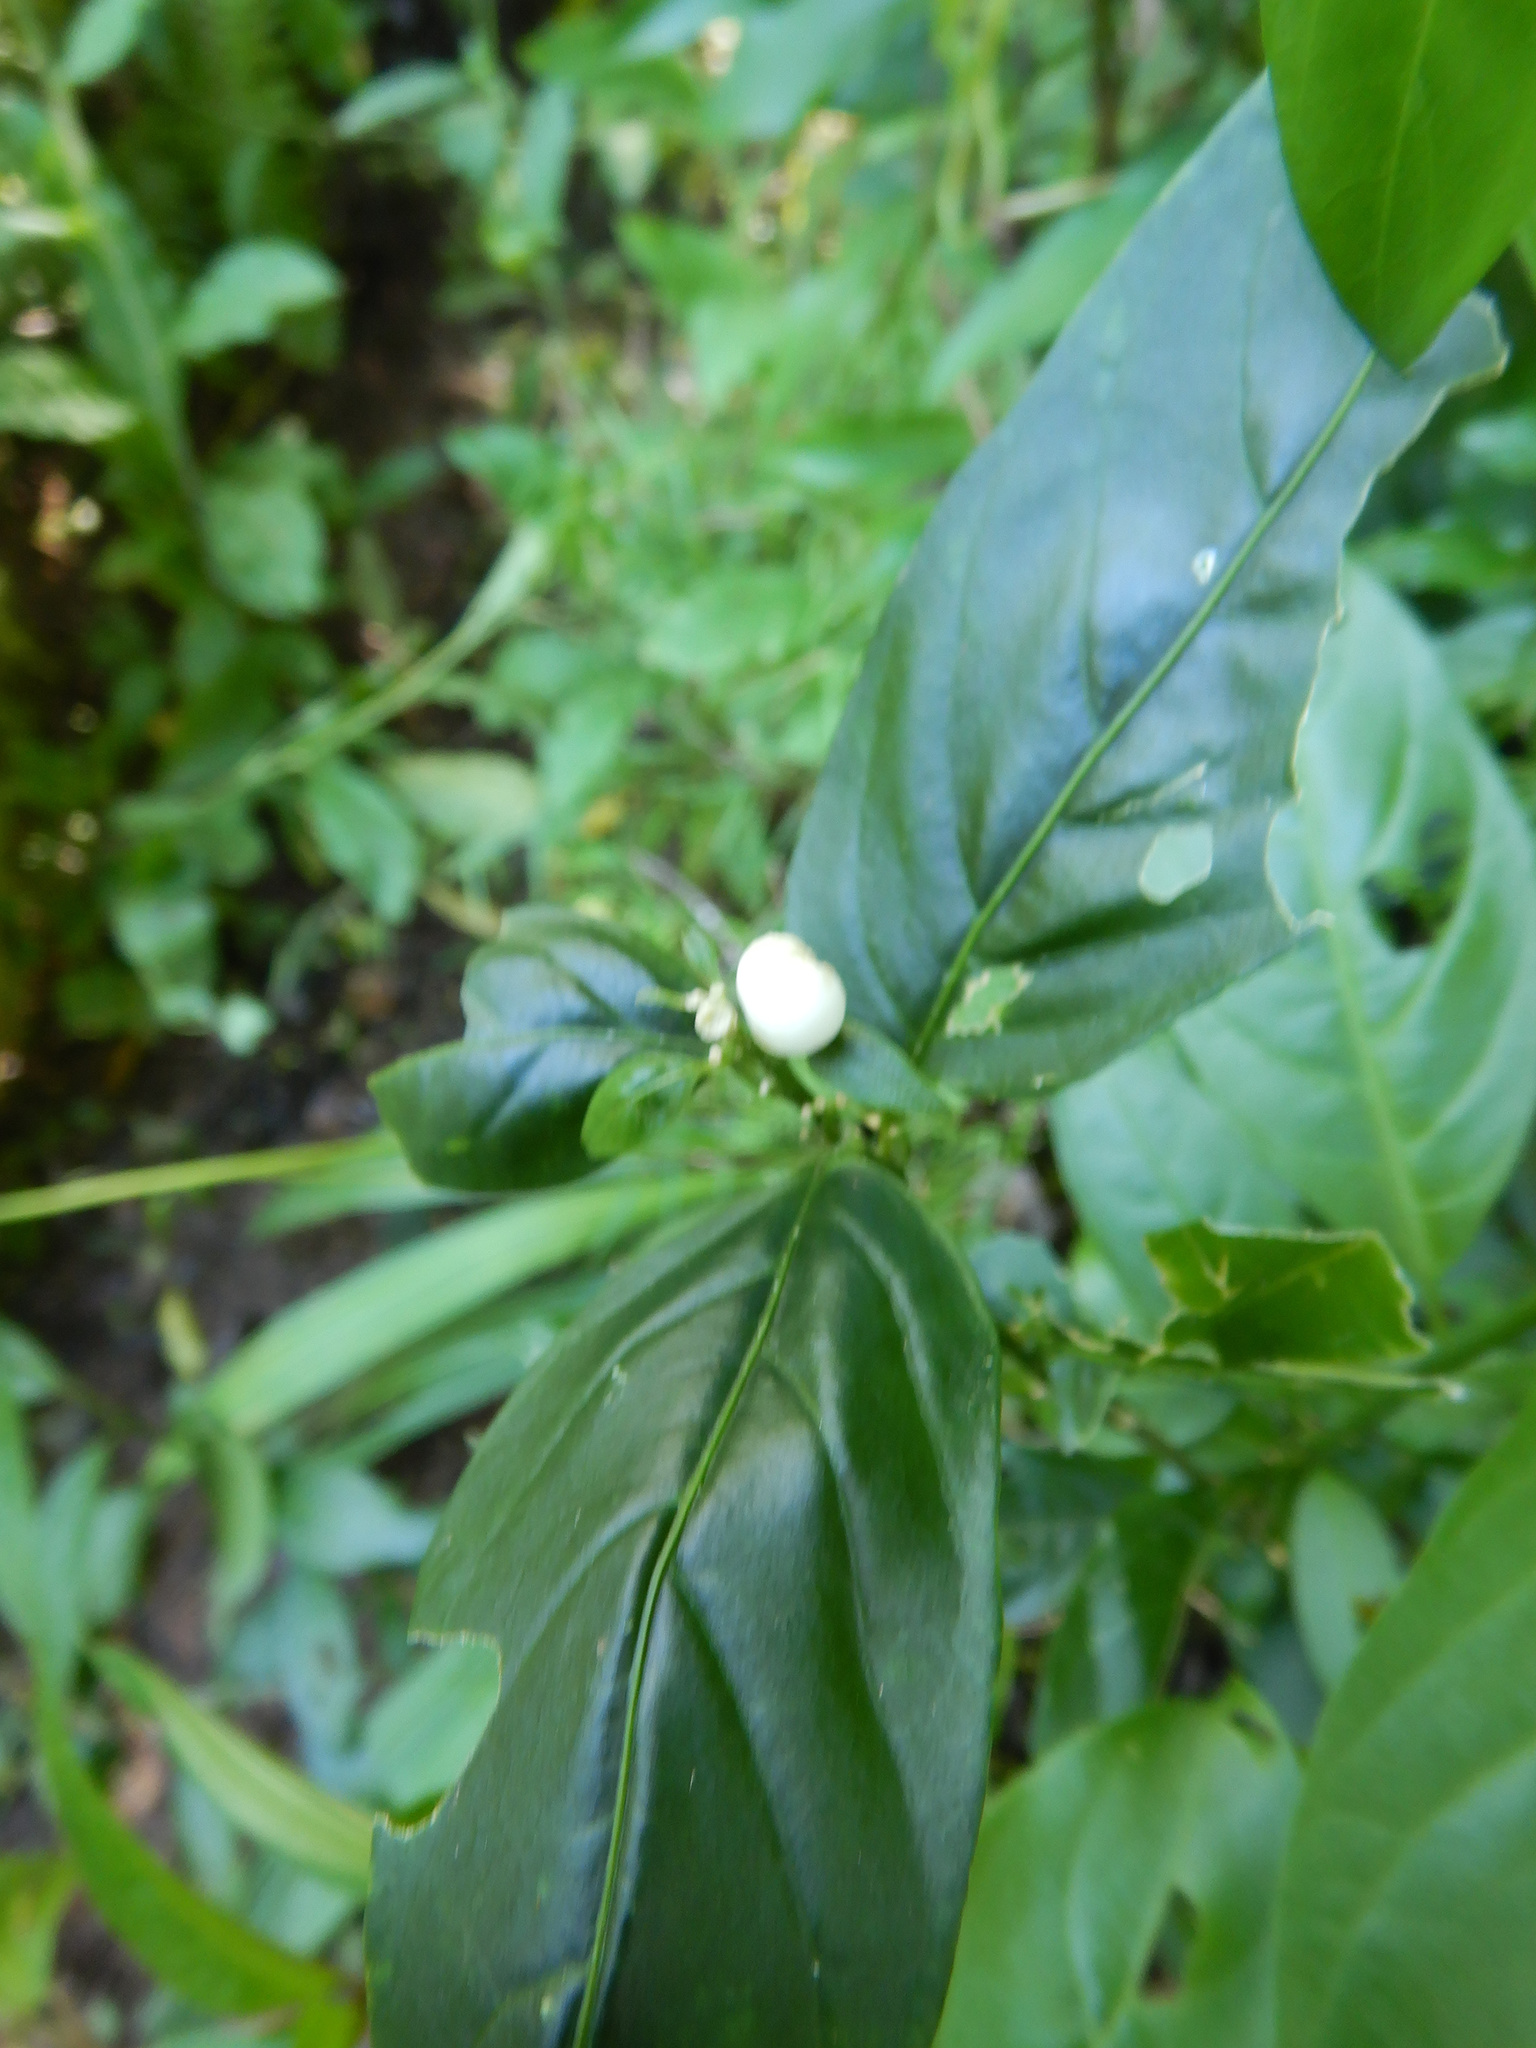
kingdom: Plantae
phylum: Tracheophyta
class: Magnoliopsida
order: Solanales
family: Solanaceae
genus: Cestrum
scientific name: Cestrum nocturnum
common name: Night jessamine
